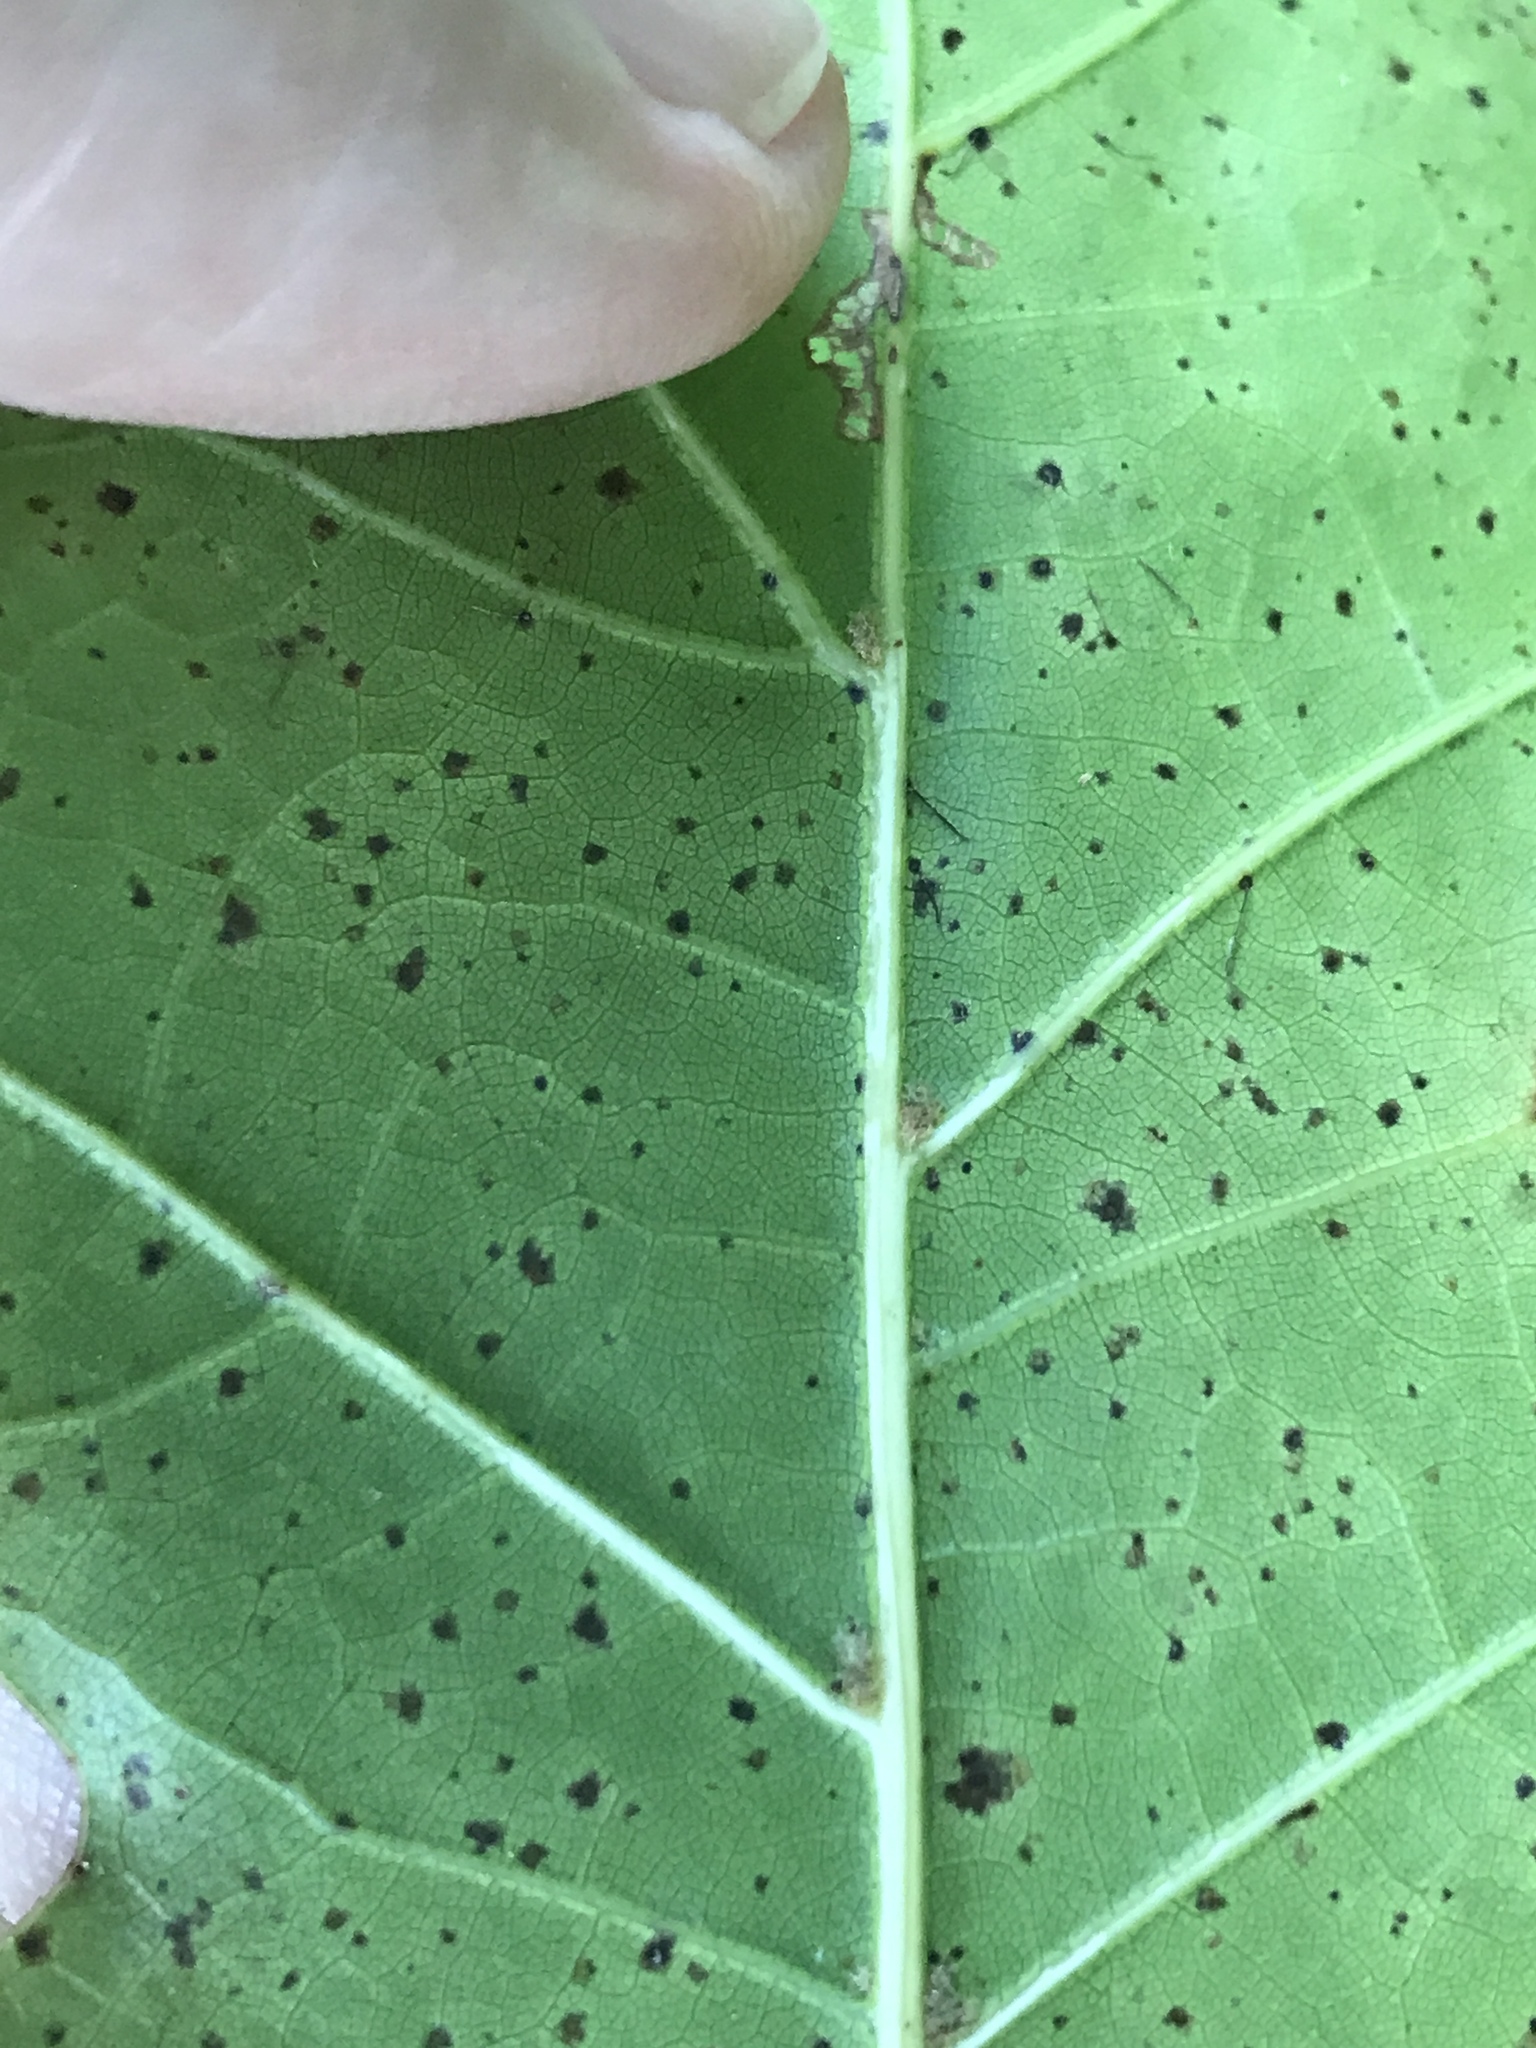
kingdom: Plantae
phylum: Tracheophyta
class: Magnoliopsida
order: Fagales
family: Fagaceae
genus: Quercus
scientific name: Quercus rubra
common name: Red oak
